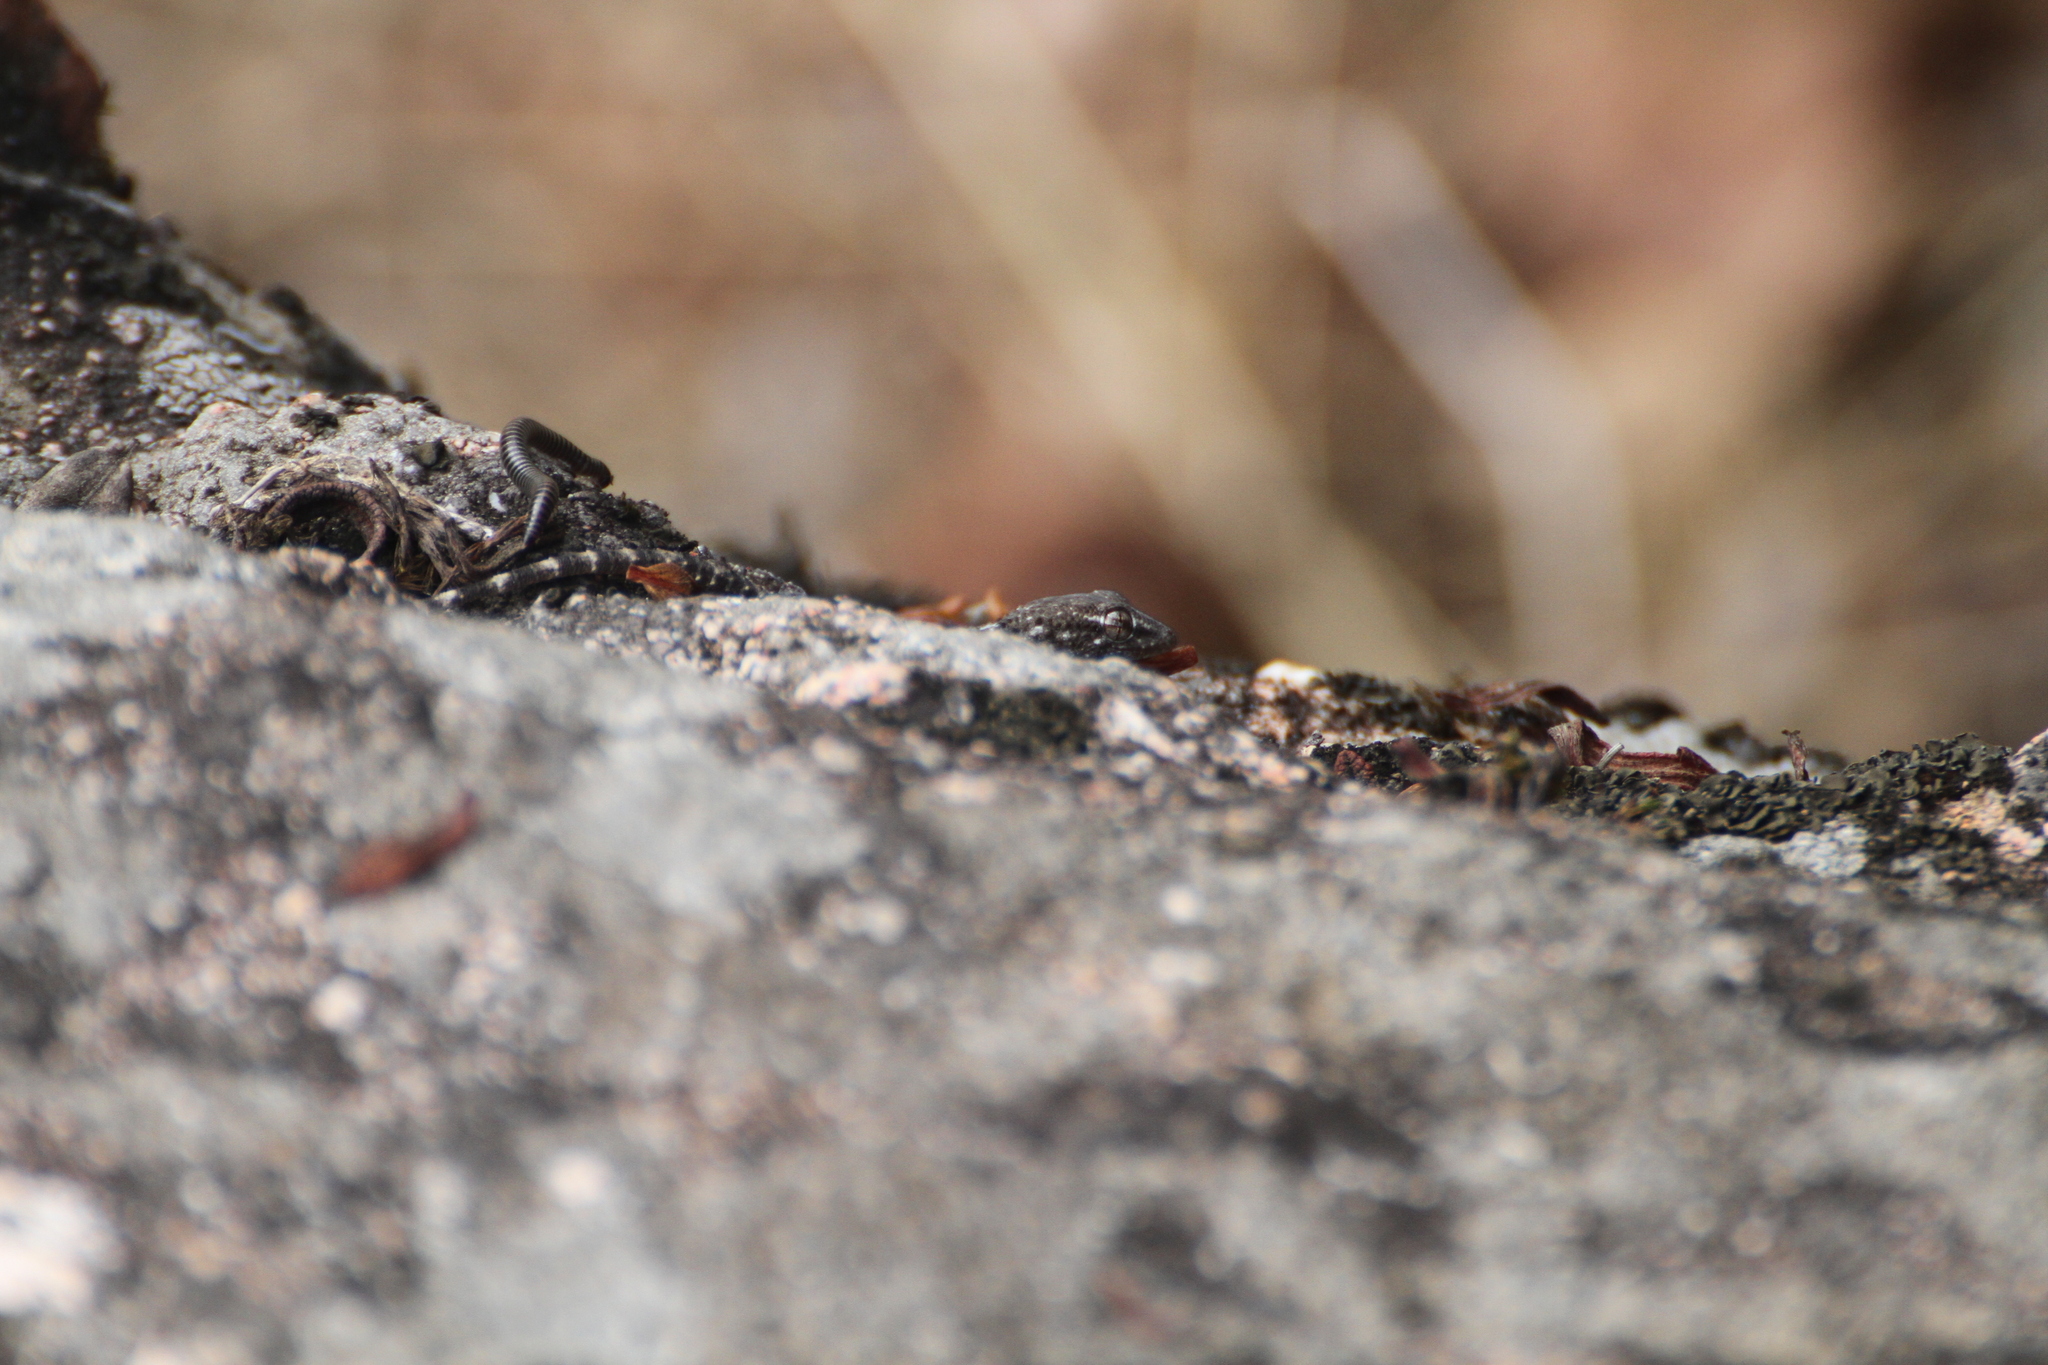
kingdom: Animalia
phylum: Chordata
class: Squamata
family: Phyllodactylidae
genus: Tarentola
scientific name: Tarentola mauritanica
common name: Moorish gecko
